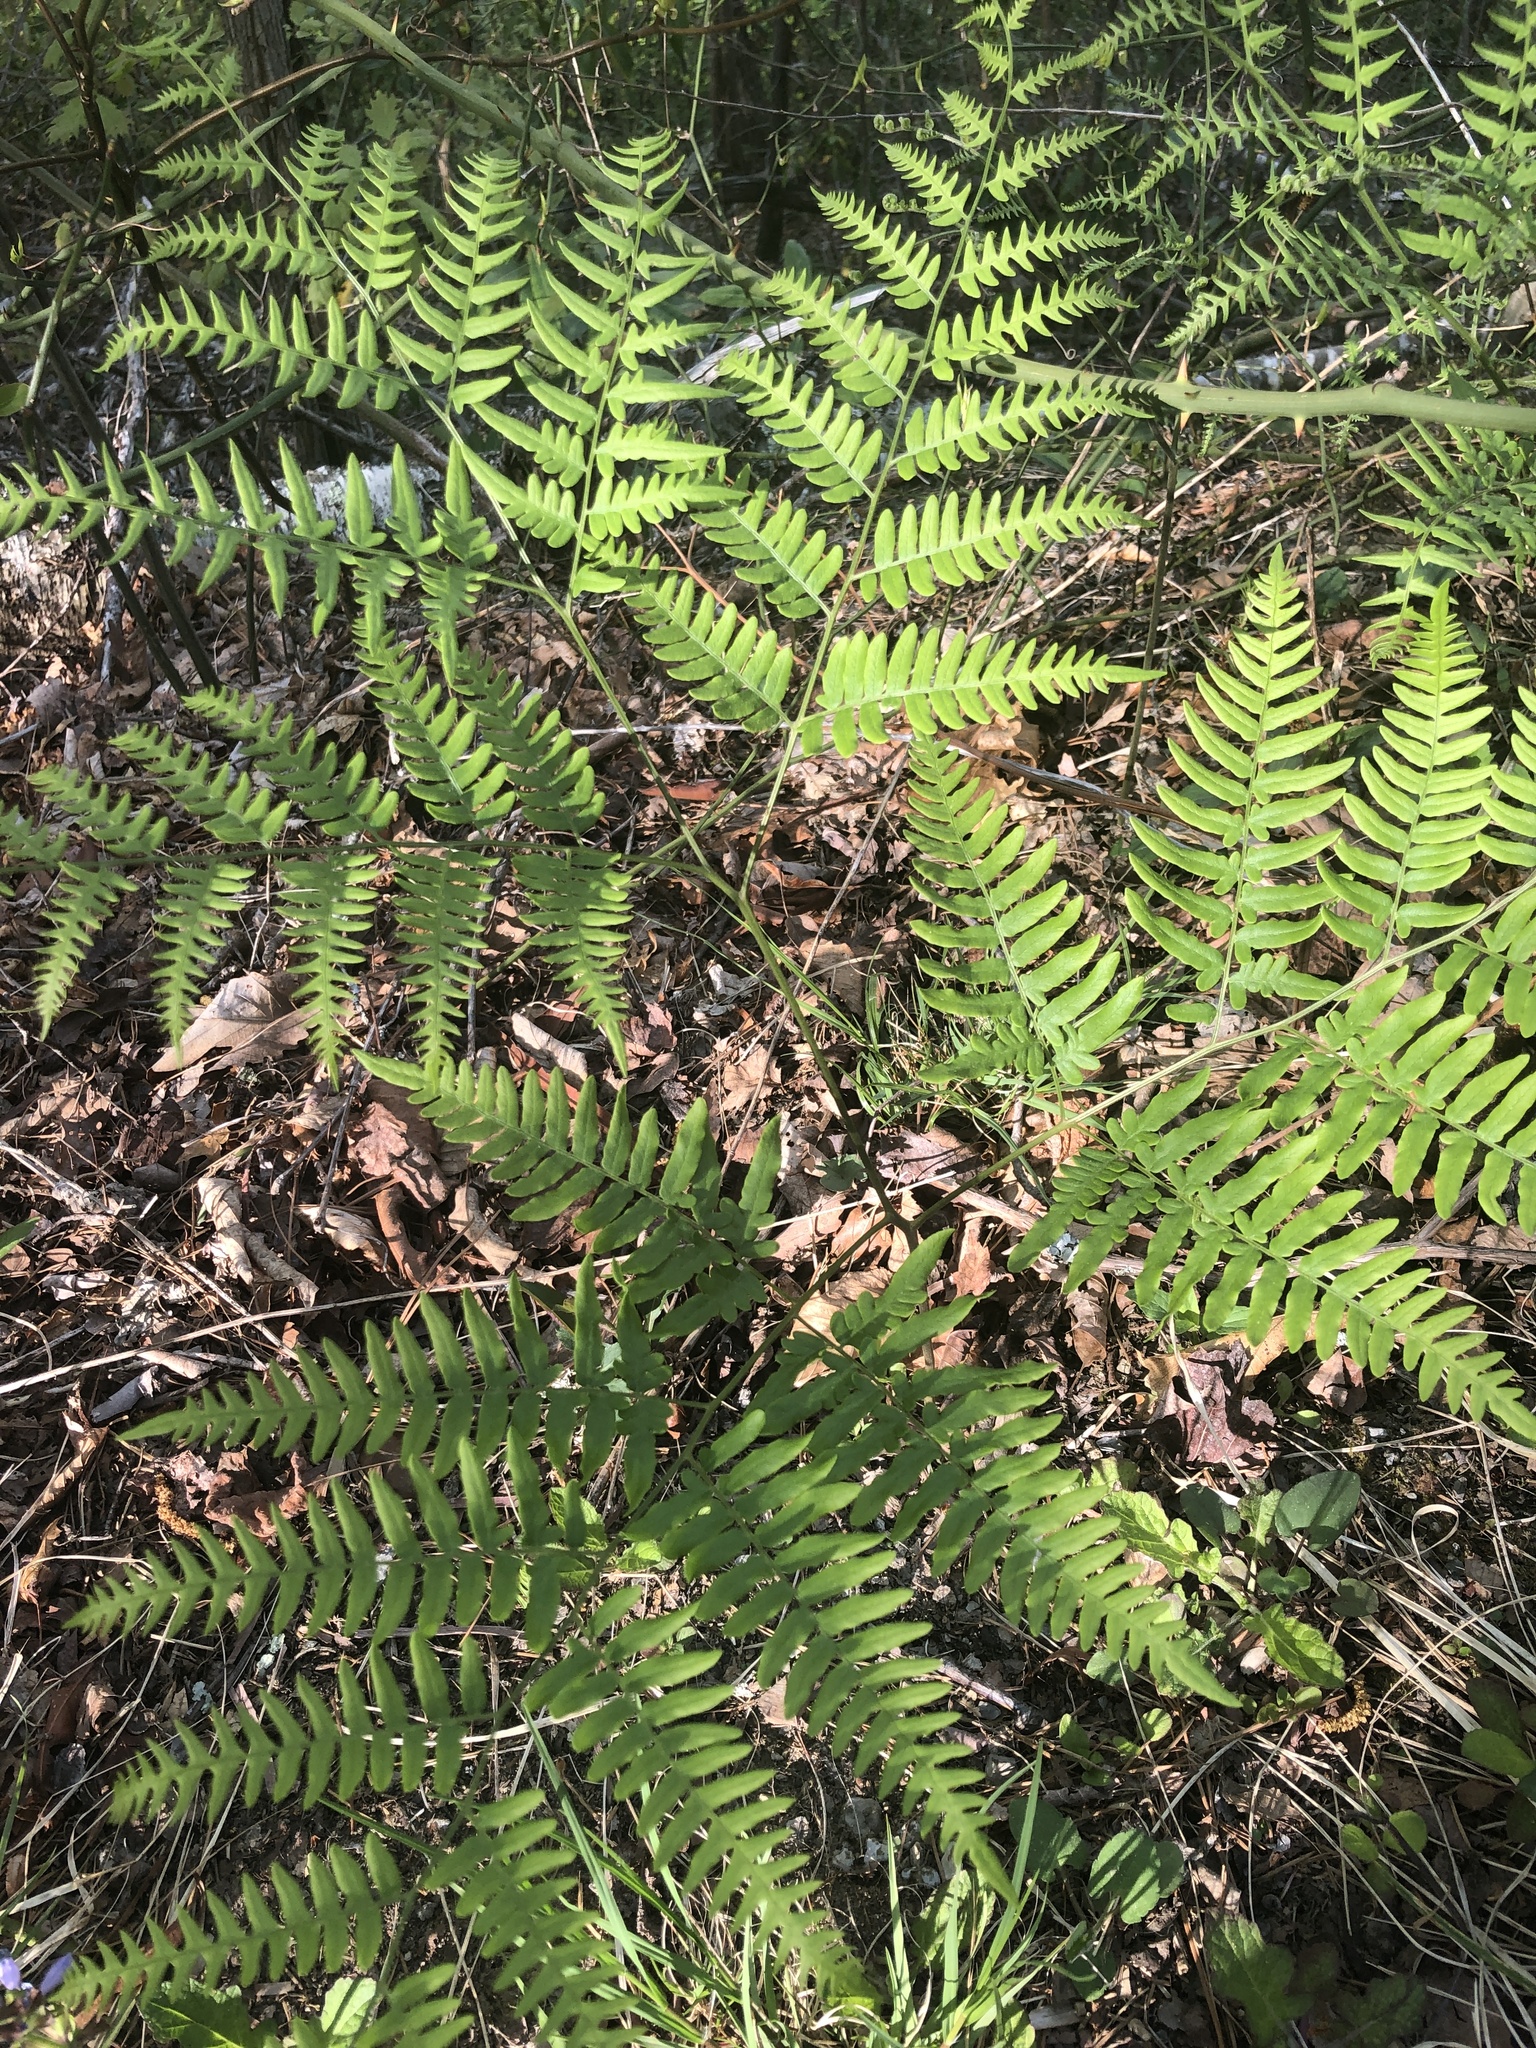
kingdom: Plantae
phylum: Tracheophyta
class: Polypodiopsida
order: Polypodiales
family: Dennstaedtiaceae
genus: Pteridium
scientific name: Pteridium aquilinum
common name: Bracken
